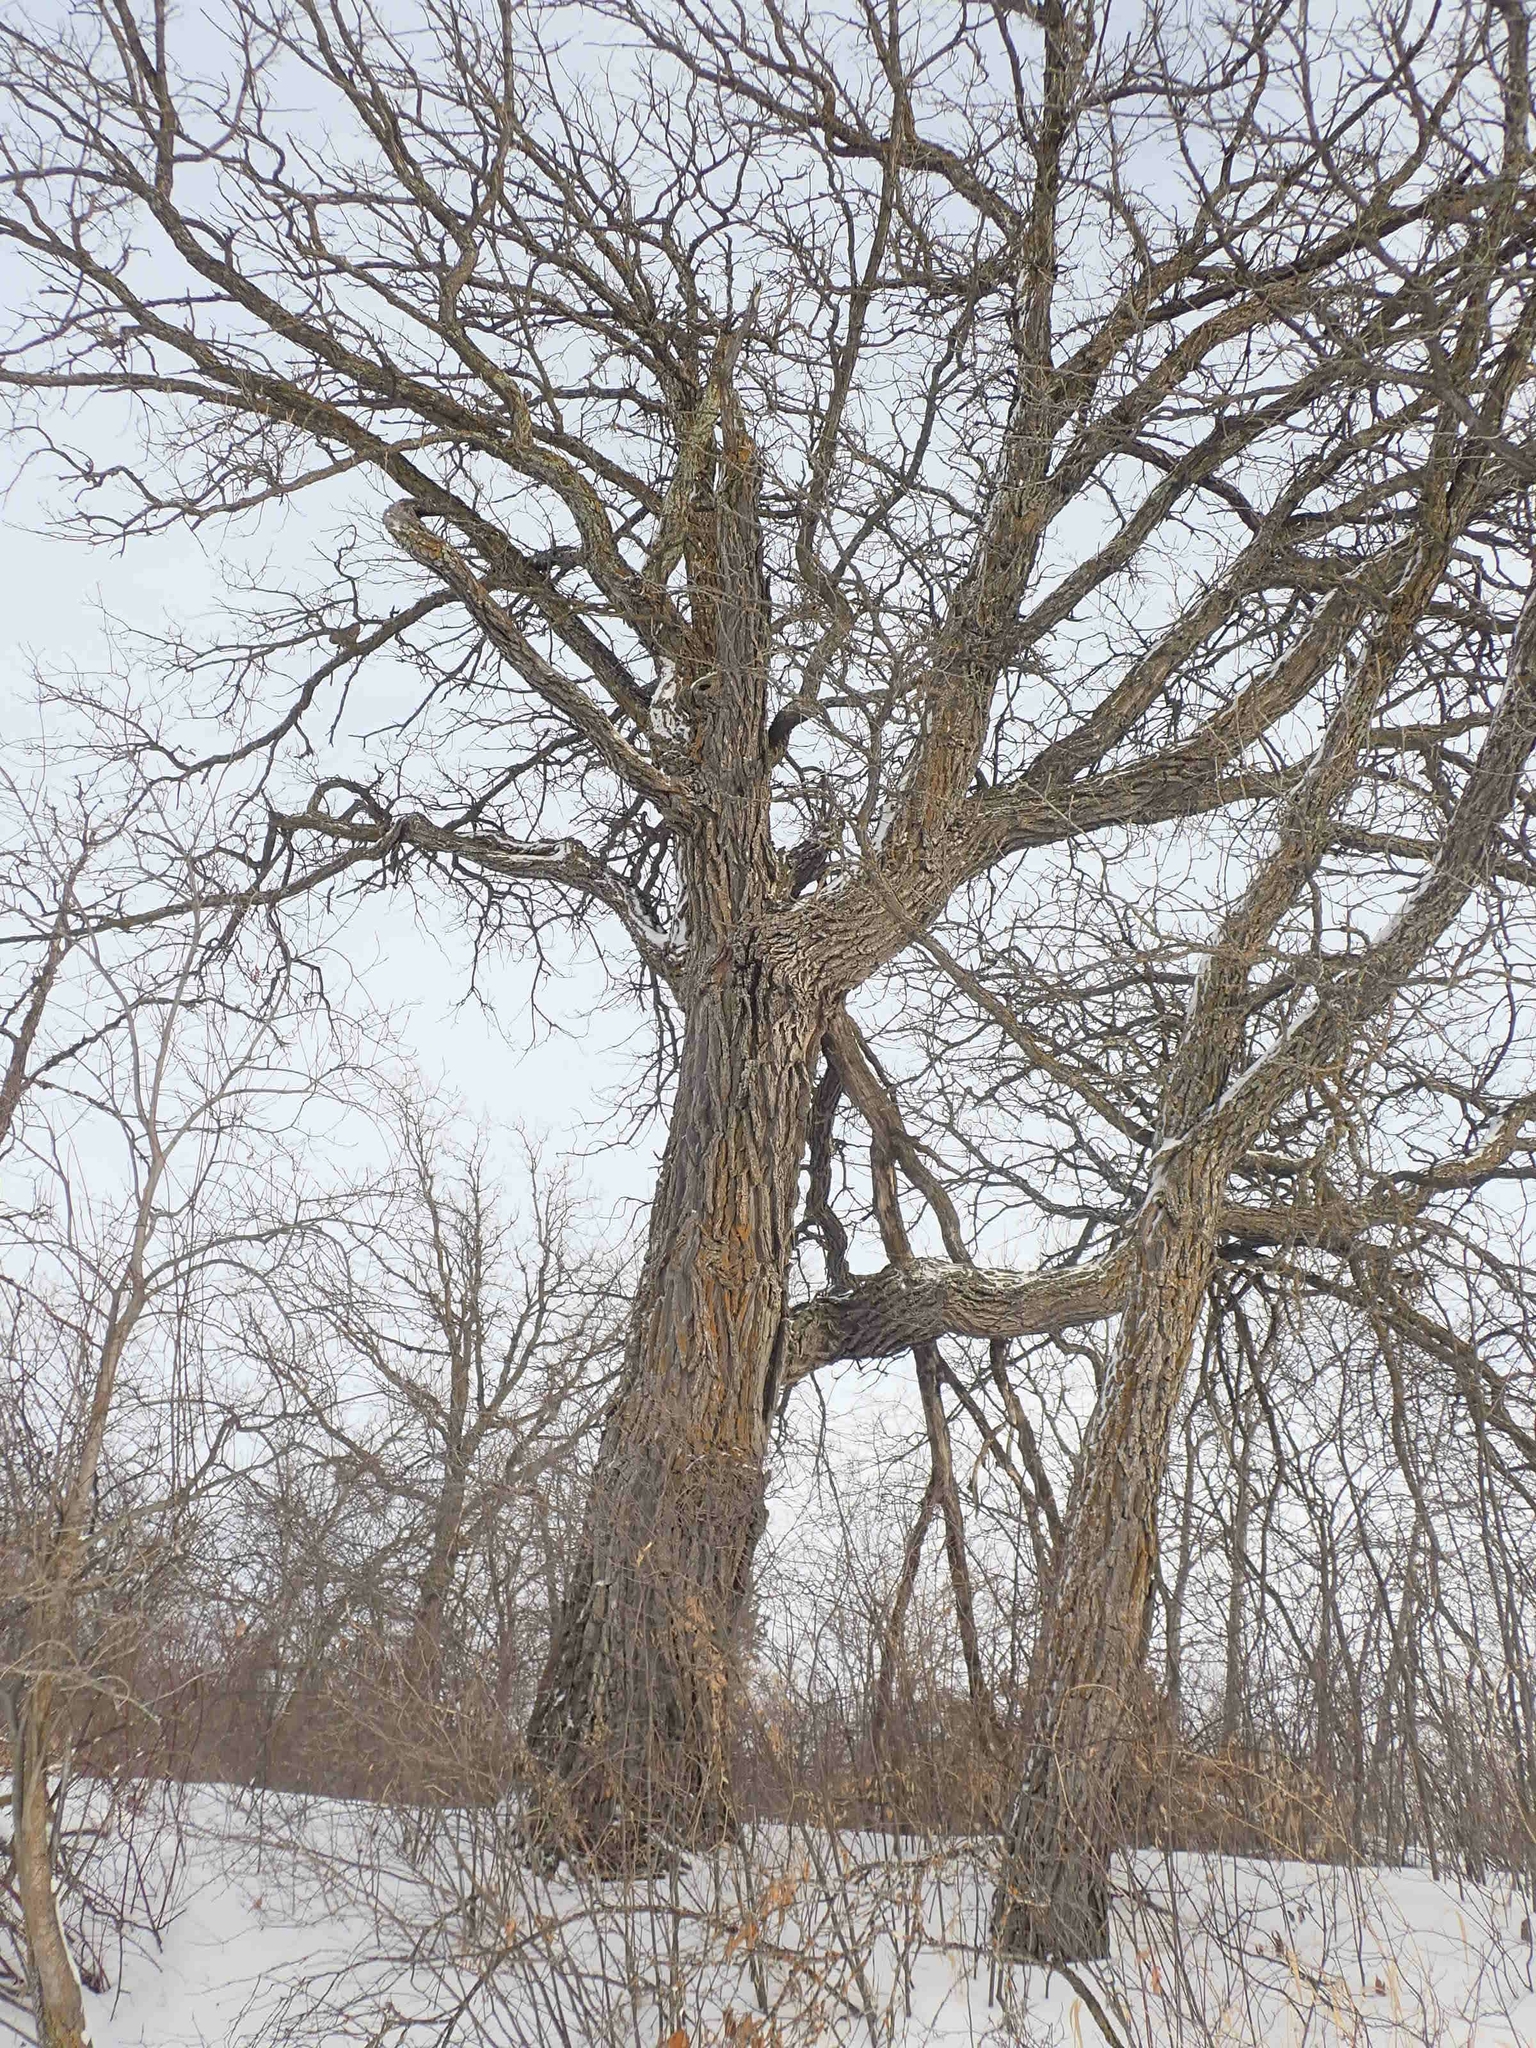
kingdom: Plantae
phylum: Tracheophyta
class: Magnoliopsida
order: Fagales
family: Fagaceae
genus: Quercus
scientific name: Quercus macrocarpa
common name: Bur oak
